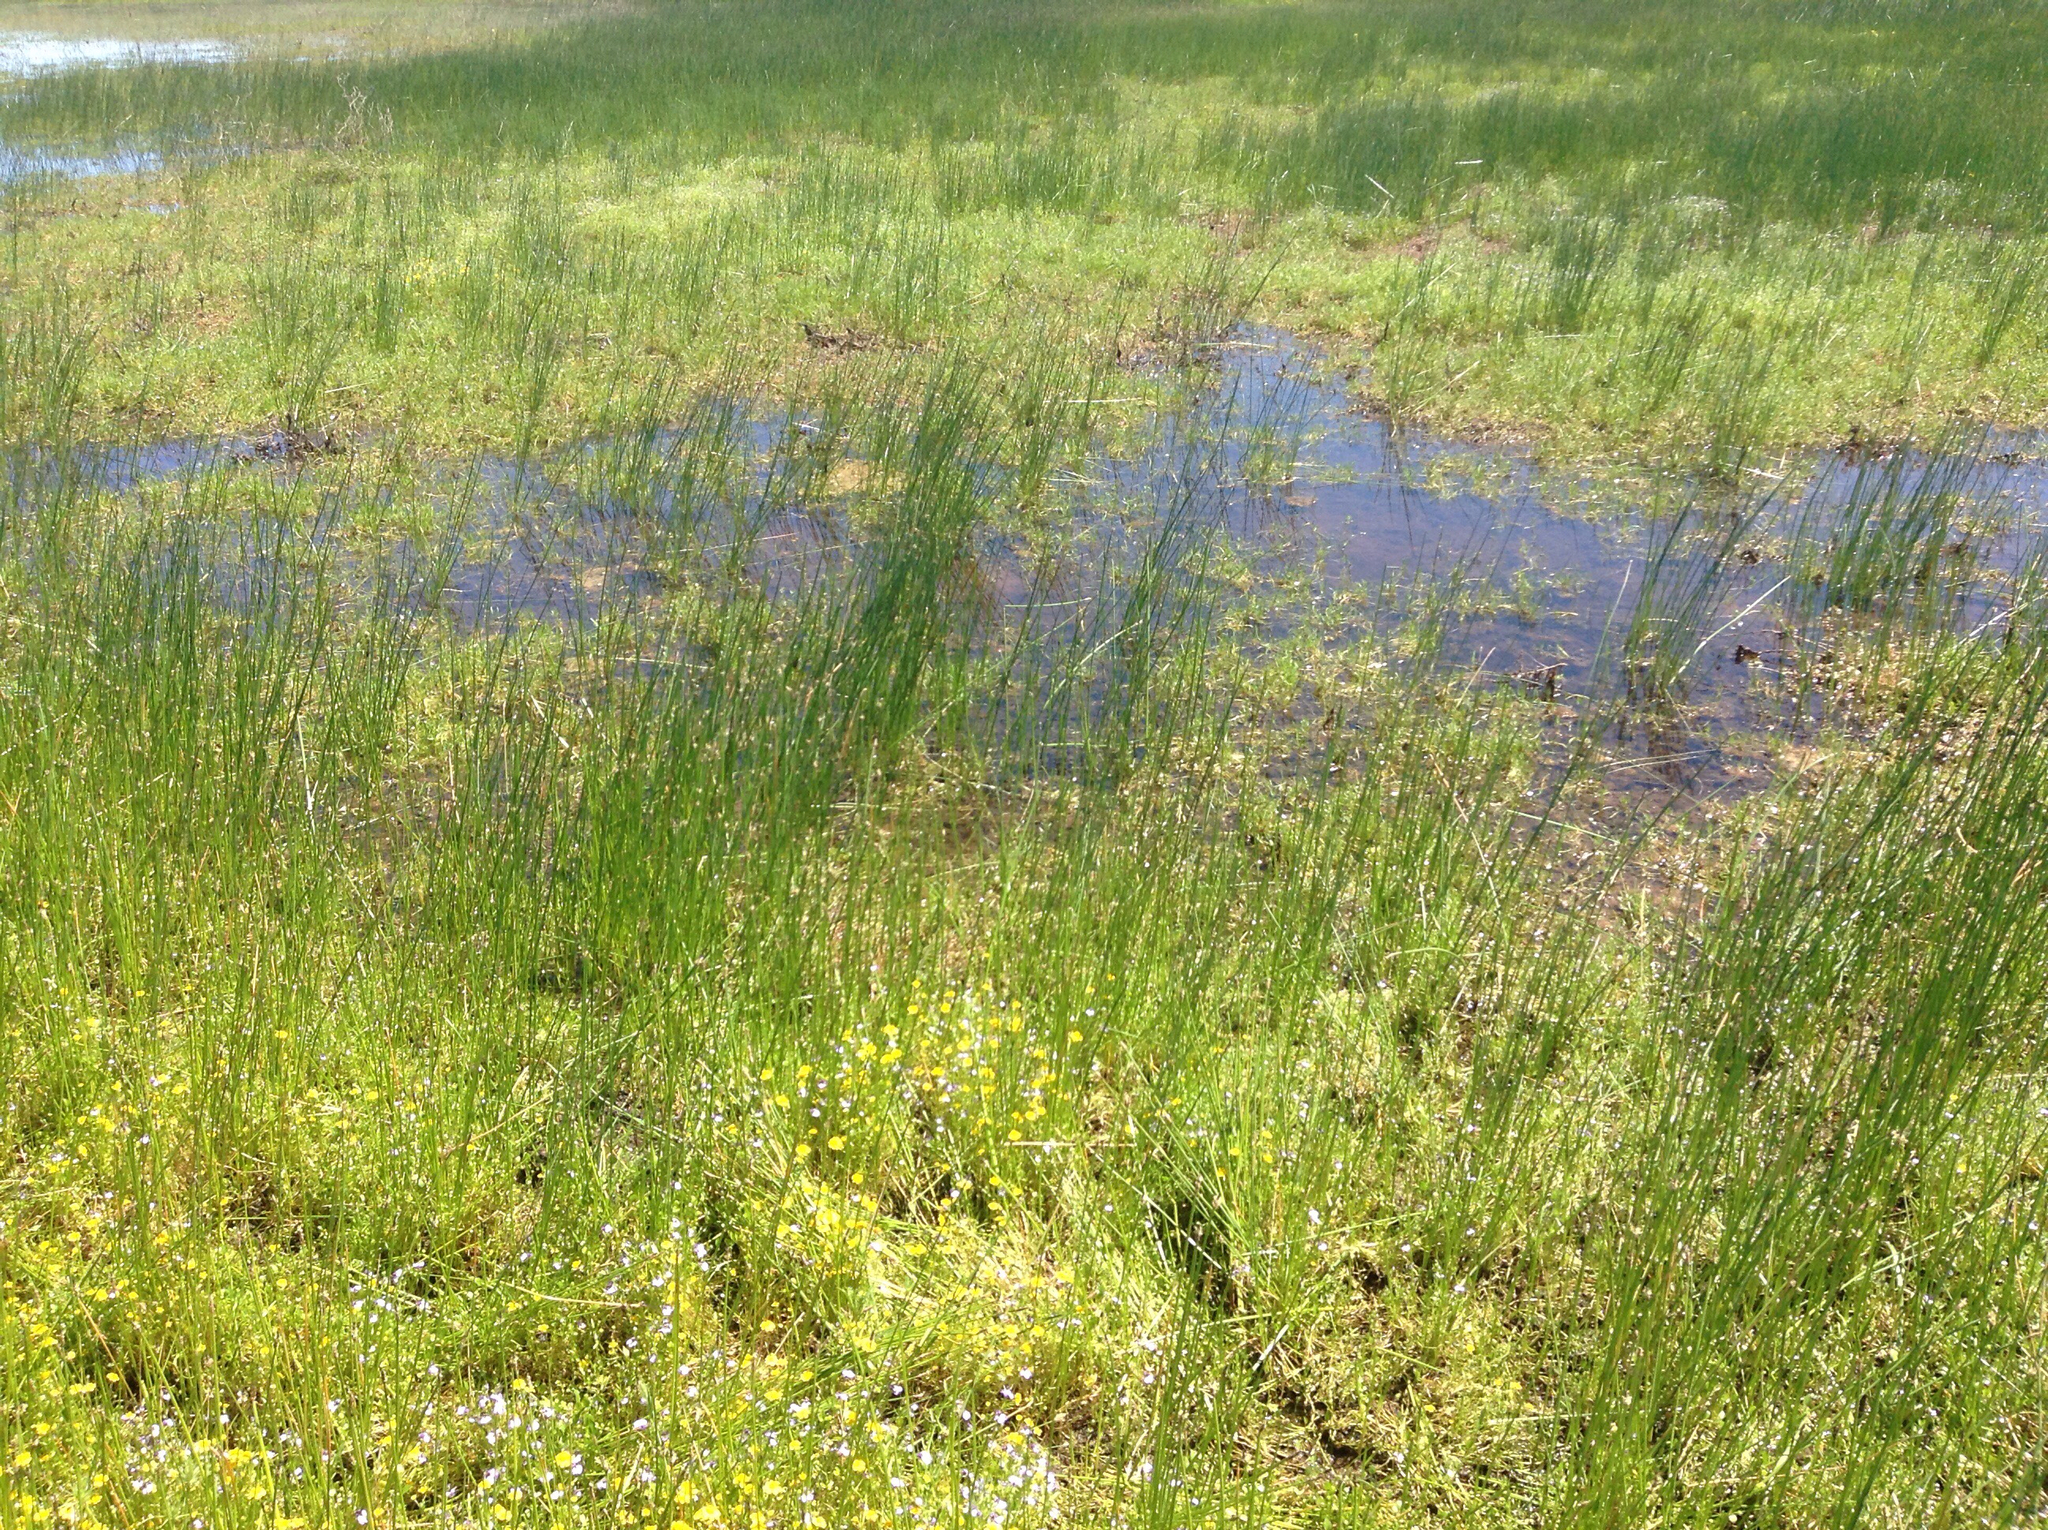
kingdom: Plantae
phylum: Tracheophyta
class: Magnoliopsida
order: Asterales
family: Campanulaceae
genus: Downingia
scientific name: Downingia bicornuta
